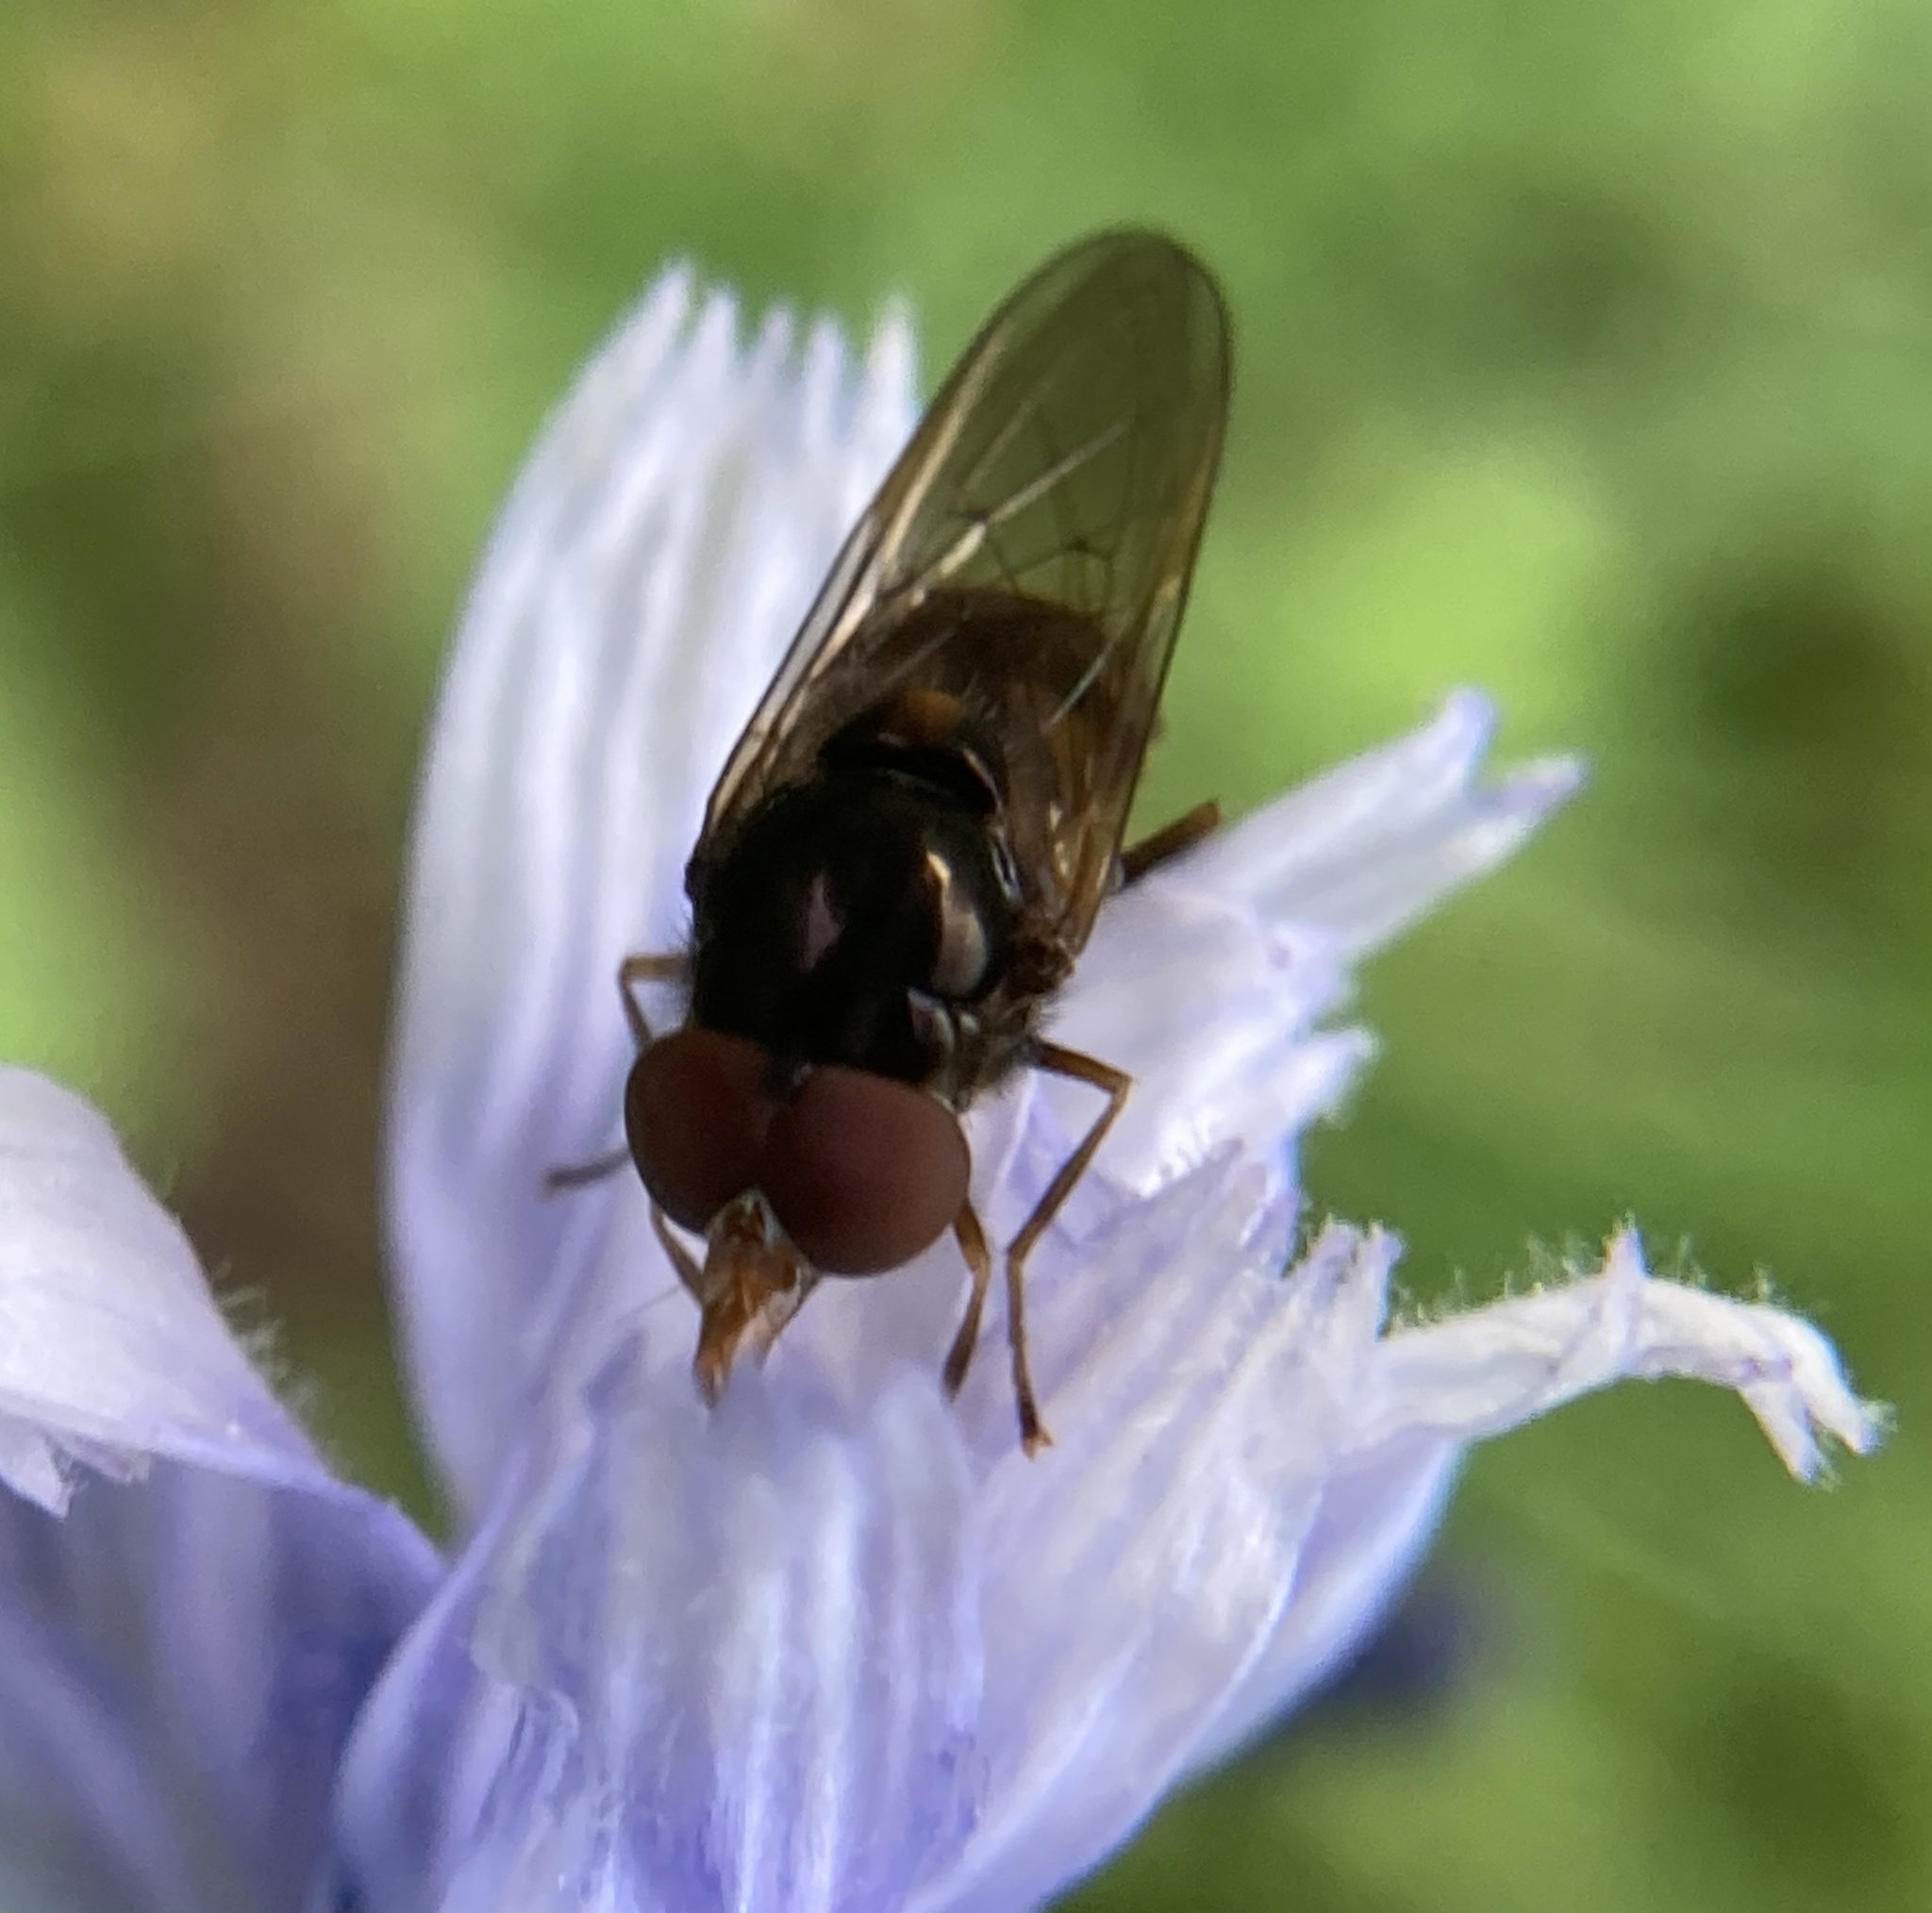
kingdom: Animalia
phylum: Arthropoda
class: Insecta
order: Diptera
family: Syrphidae
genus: Rhingia
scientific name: Rhingia nasica
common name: American snout fly
